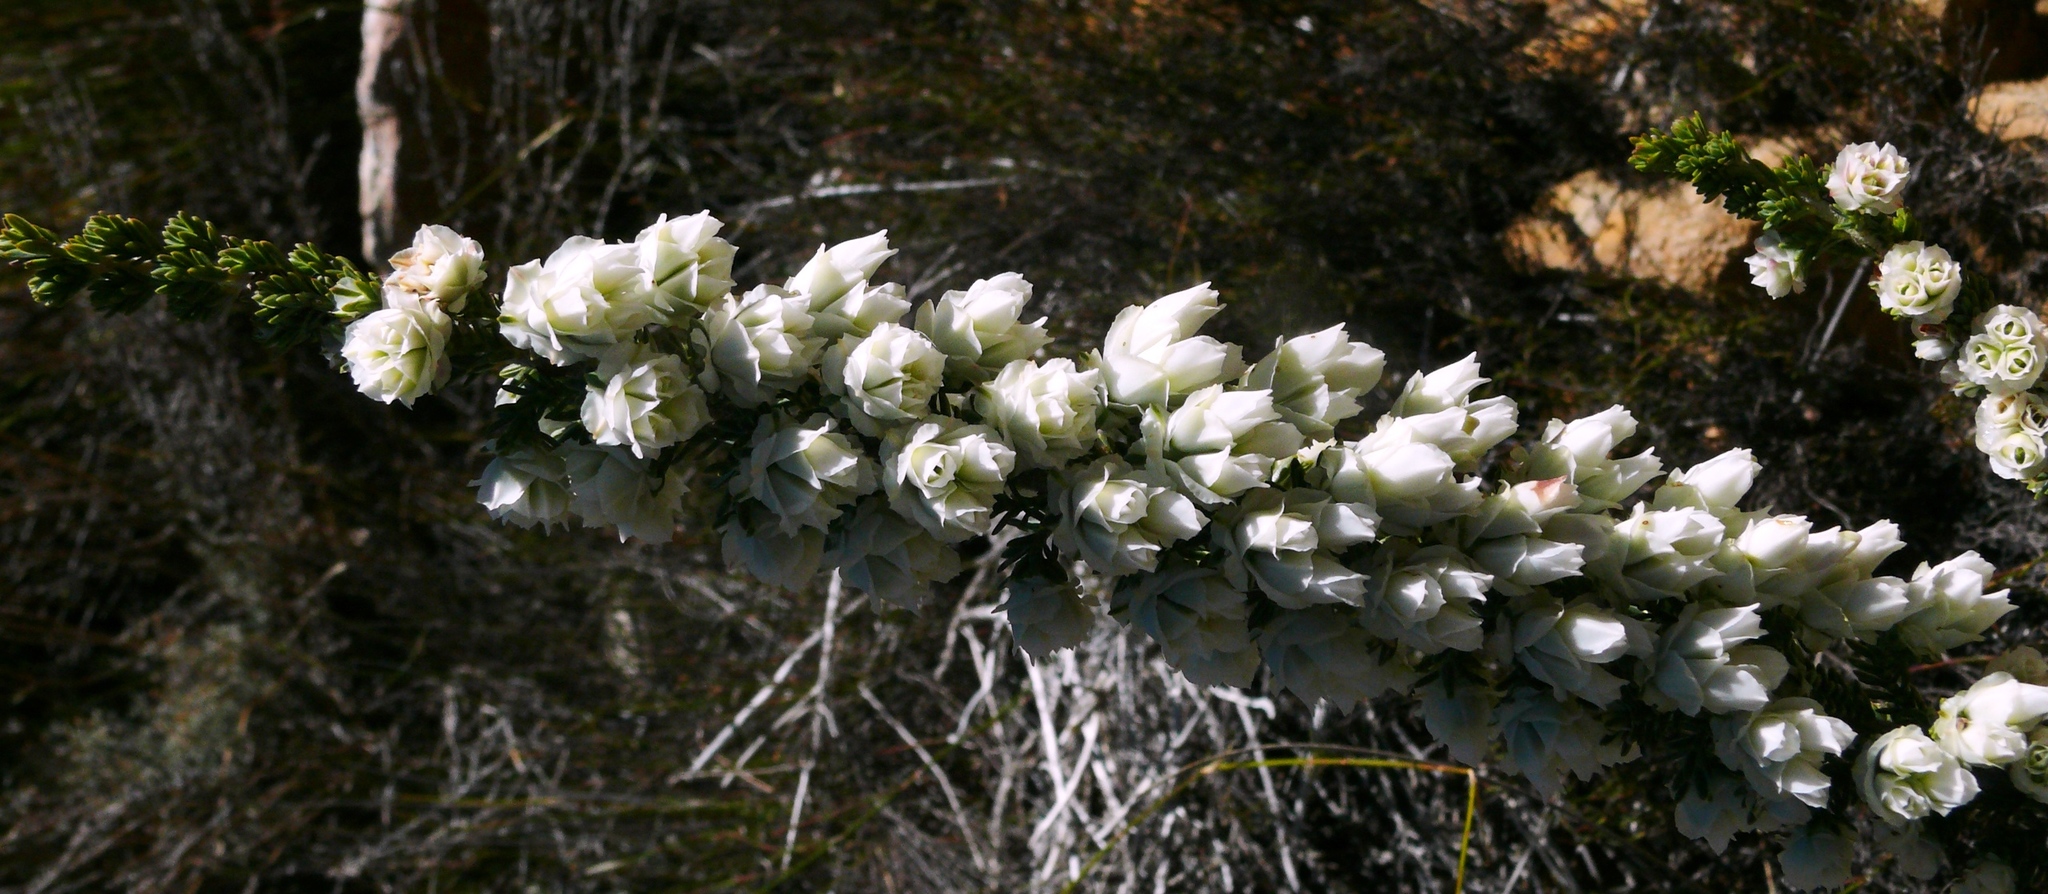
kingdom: Plantae
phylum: Tracheophyta
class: Magnoliopsida
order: Ericales
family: Ericaceae
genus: Erica
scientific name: Erica monsoniana
